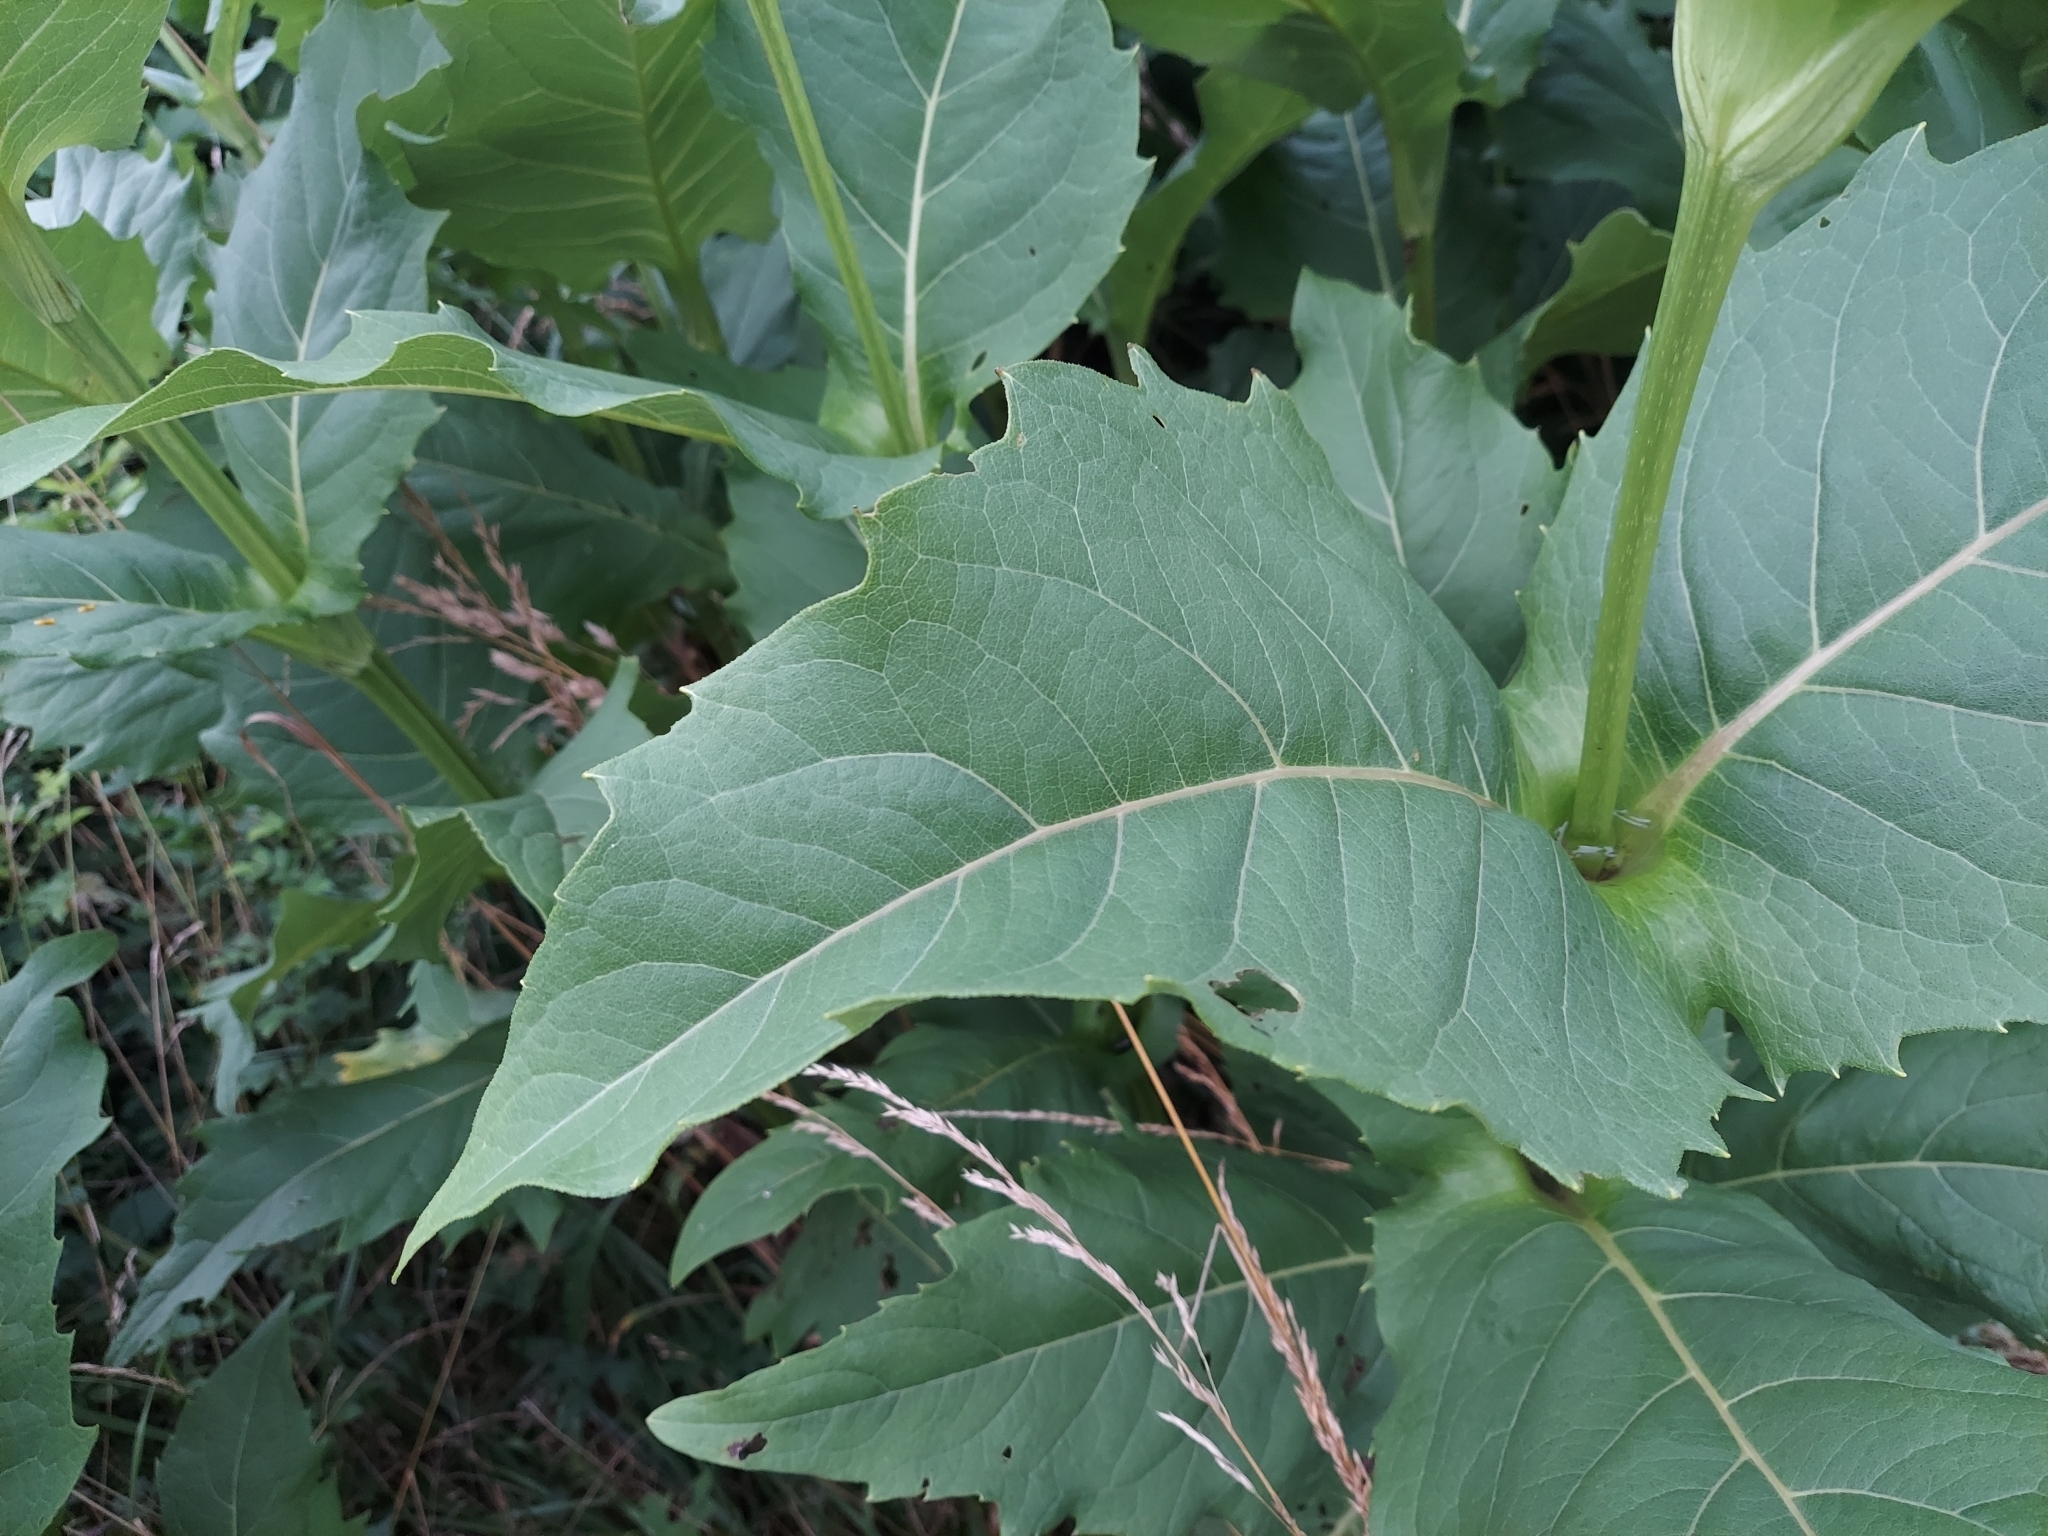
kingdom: Plantae
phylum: Tracheophyta
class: Magnoliopsida
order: Asterales
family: Asteraceae
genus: Silphium
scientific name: Silphium perfoliatum
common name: Cup-plant
